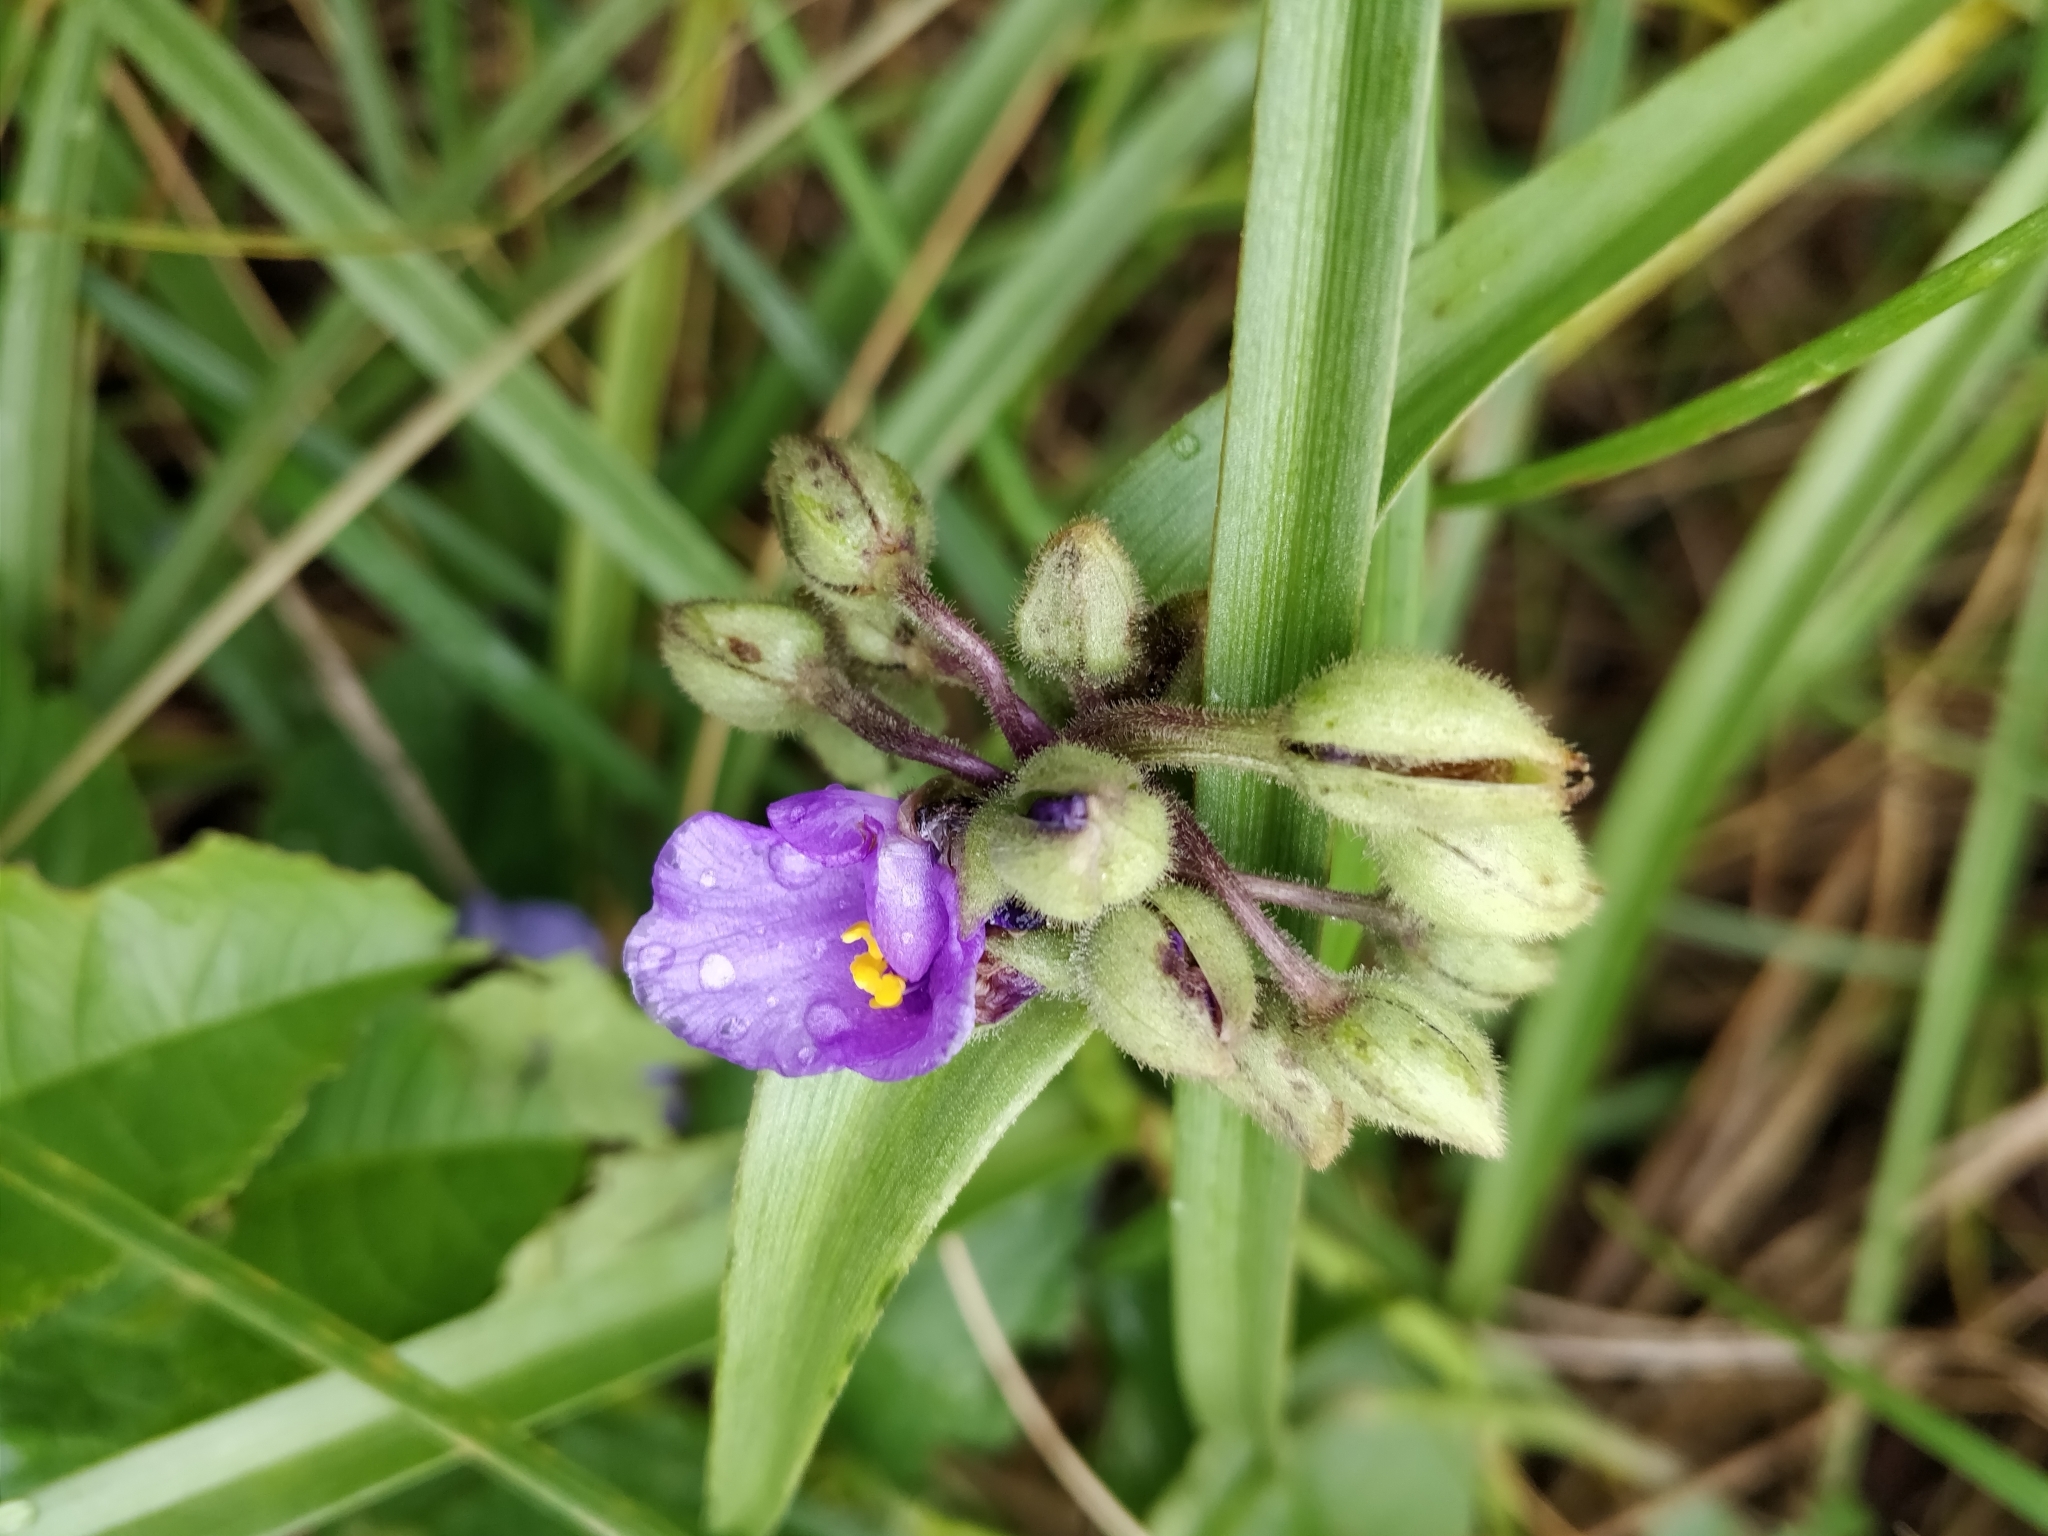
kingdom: Plantae
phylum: Tracheophyta
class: Liliopsida
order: Commelinales
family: Commelinaceae
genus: Tradescantia
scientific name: Tradescantia bracteata
